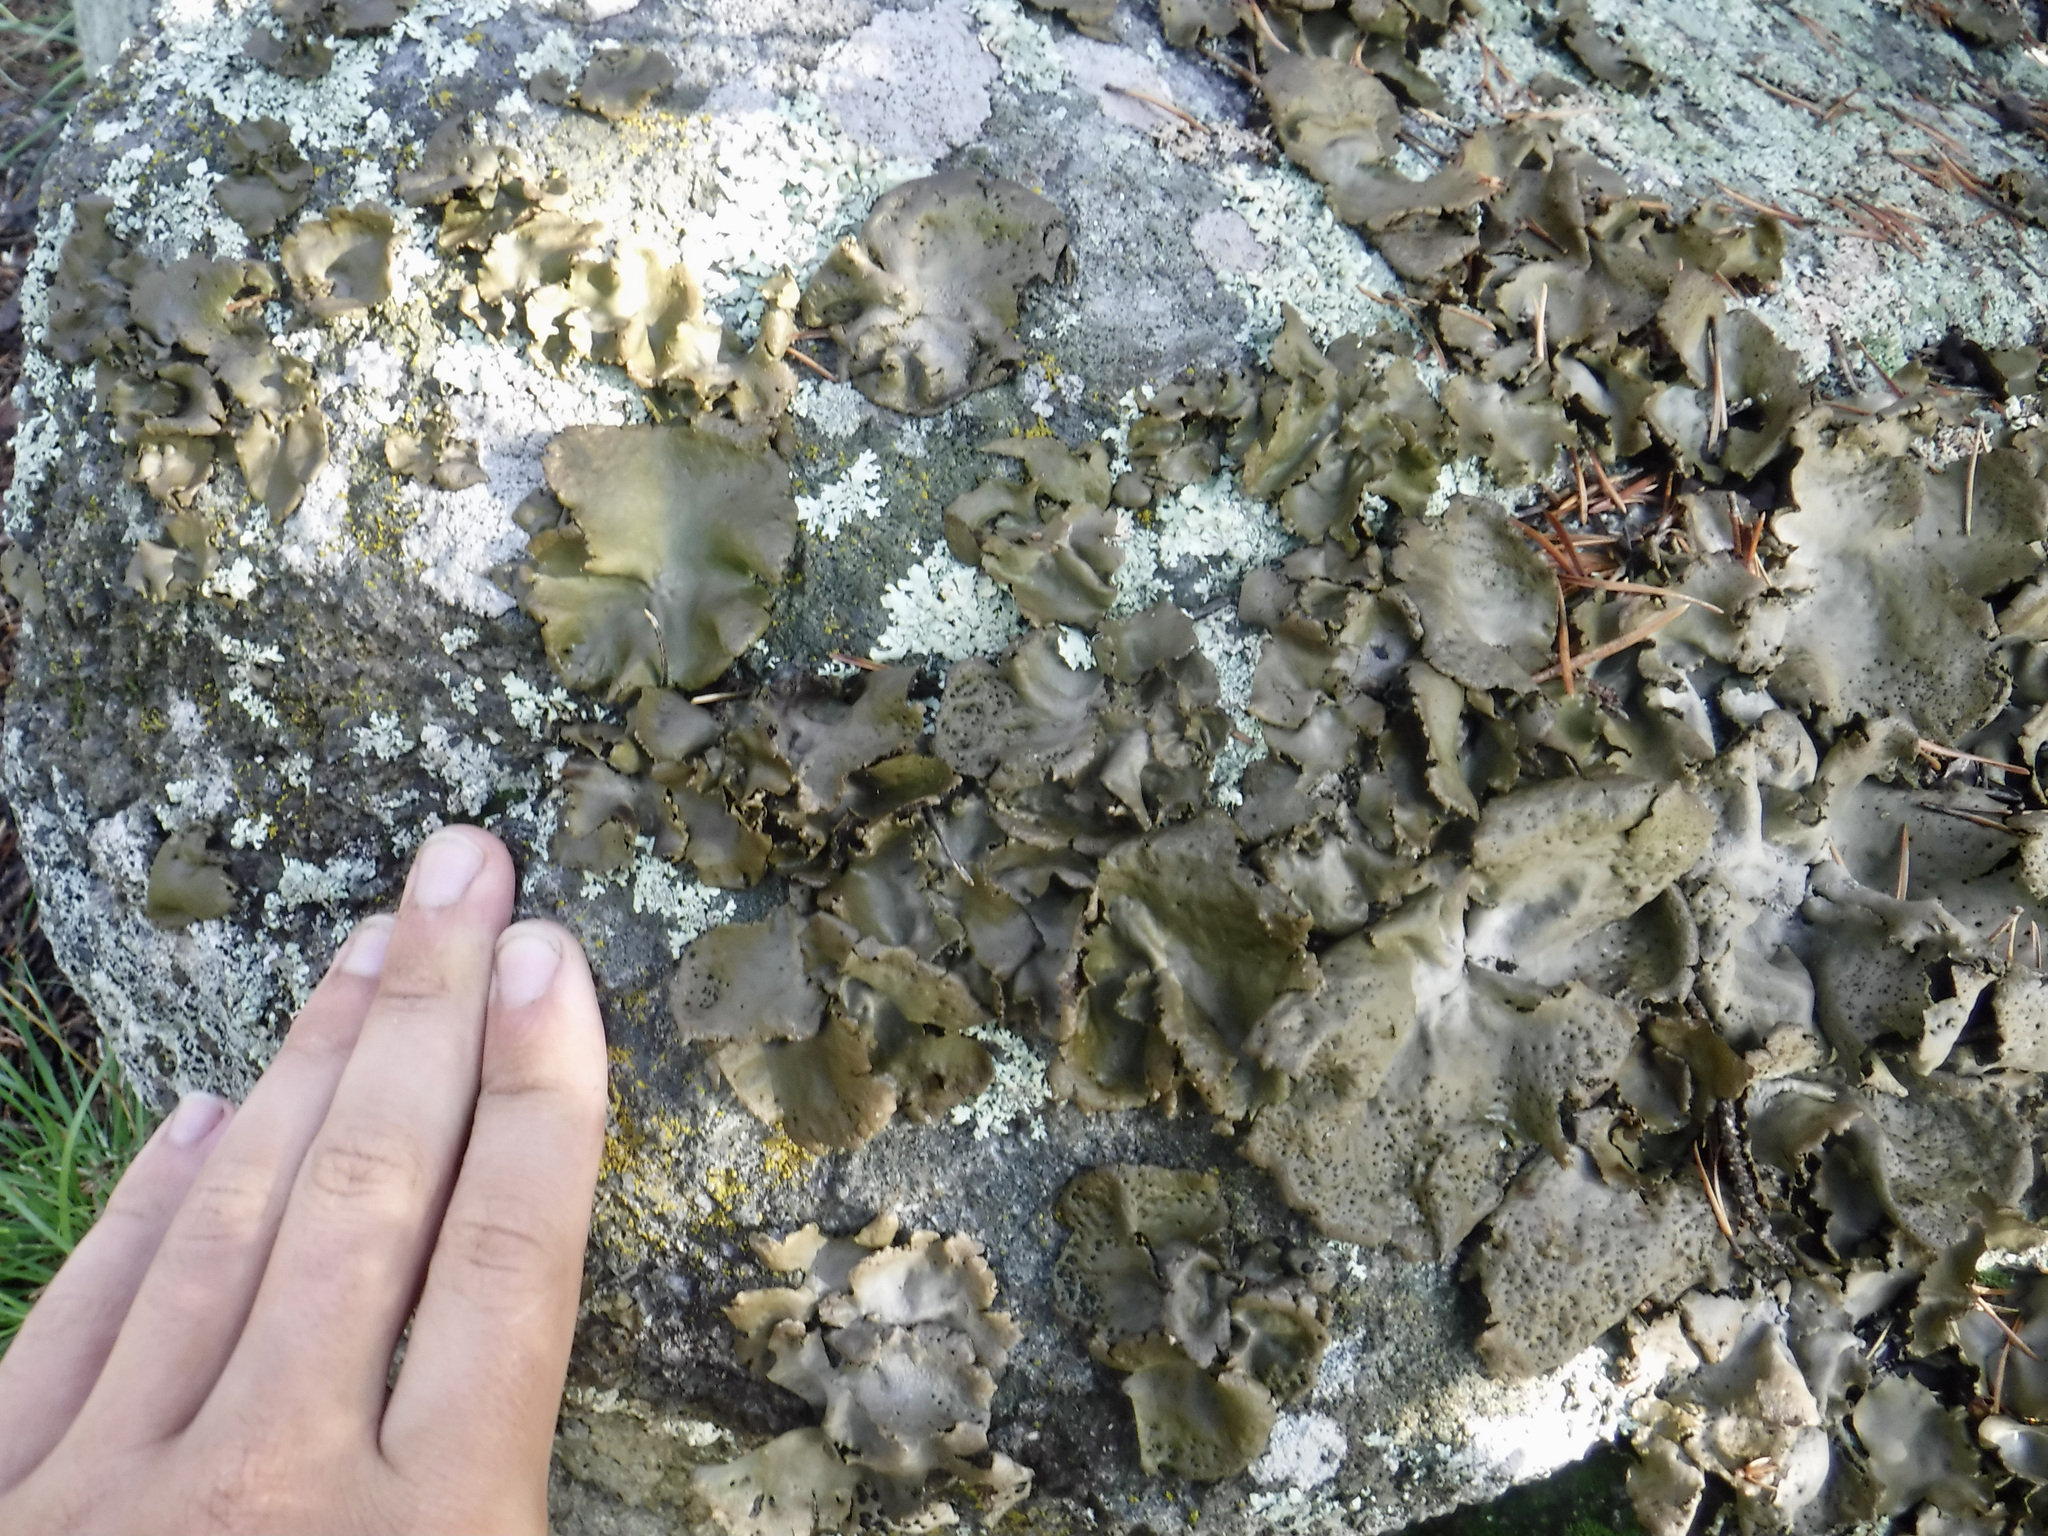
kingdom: Fungi
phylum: Ascomycota
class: Lecanoromycetes
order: Umbilicariales
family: Umbilicariaceae
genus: Umbilicaria
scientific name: Umbilicaria muhlenbergii
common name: Lesser rocktripe
